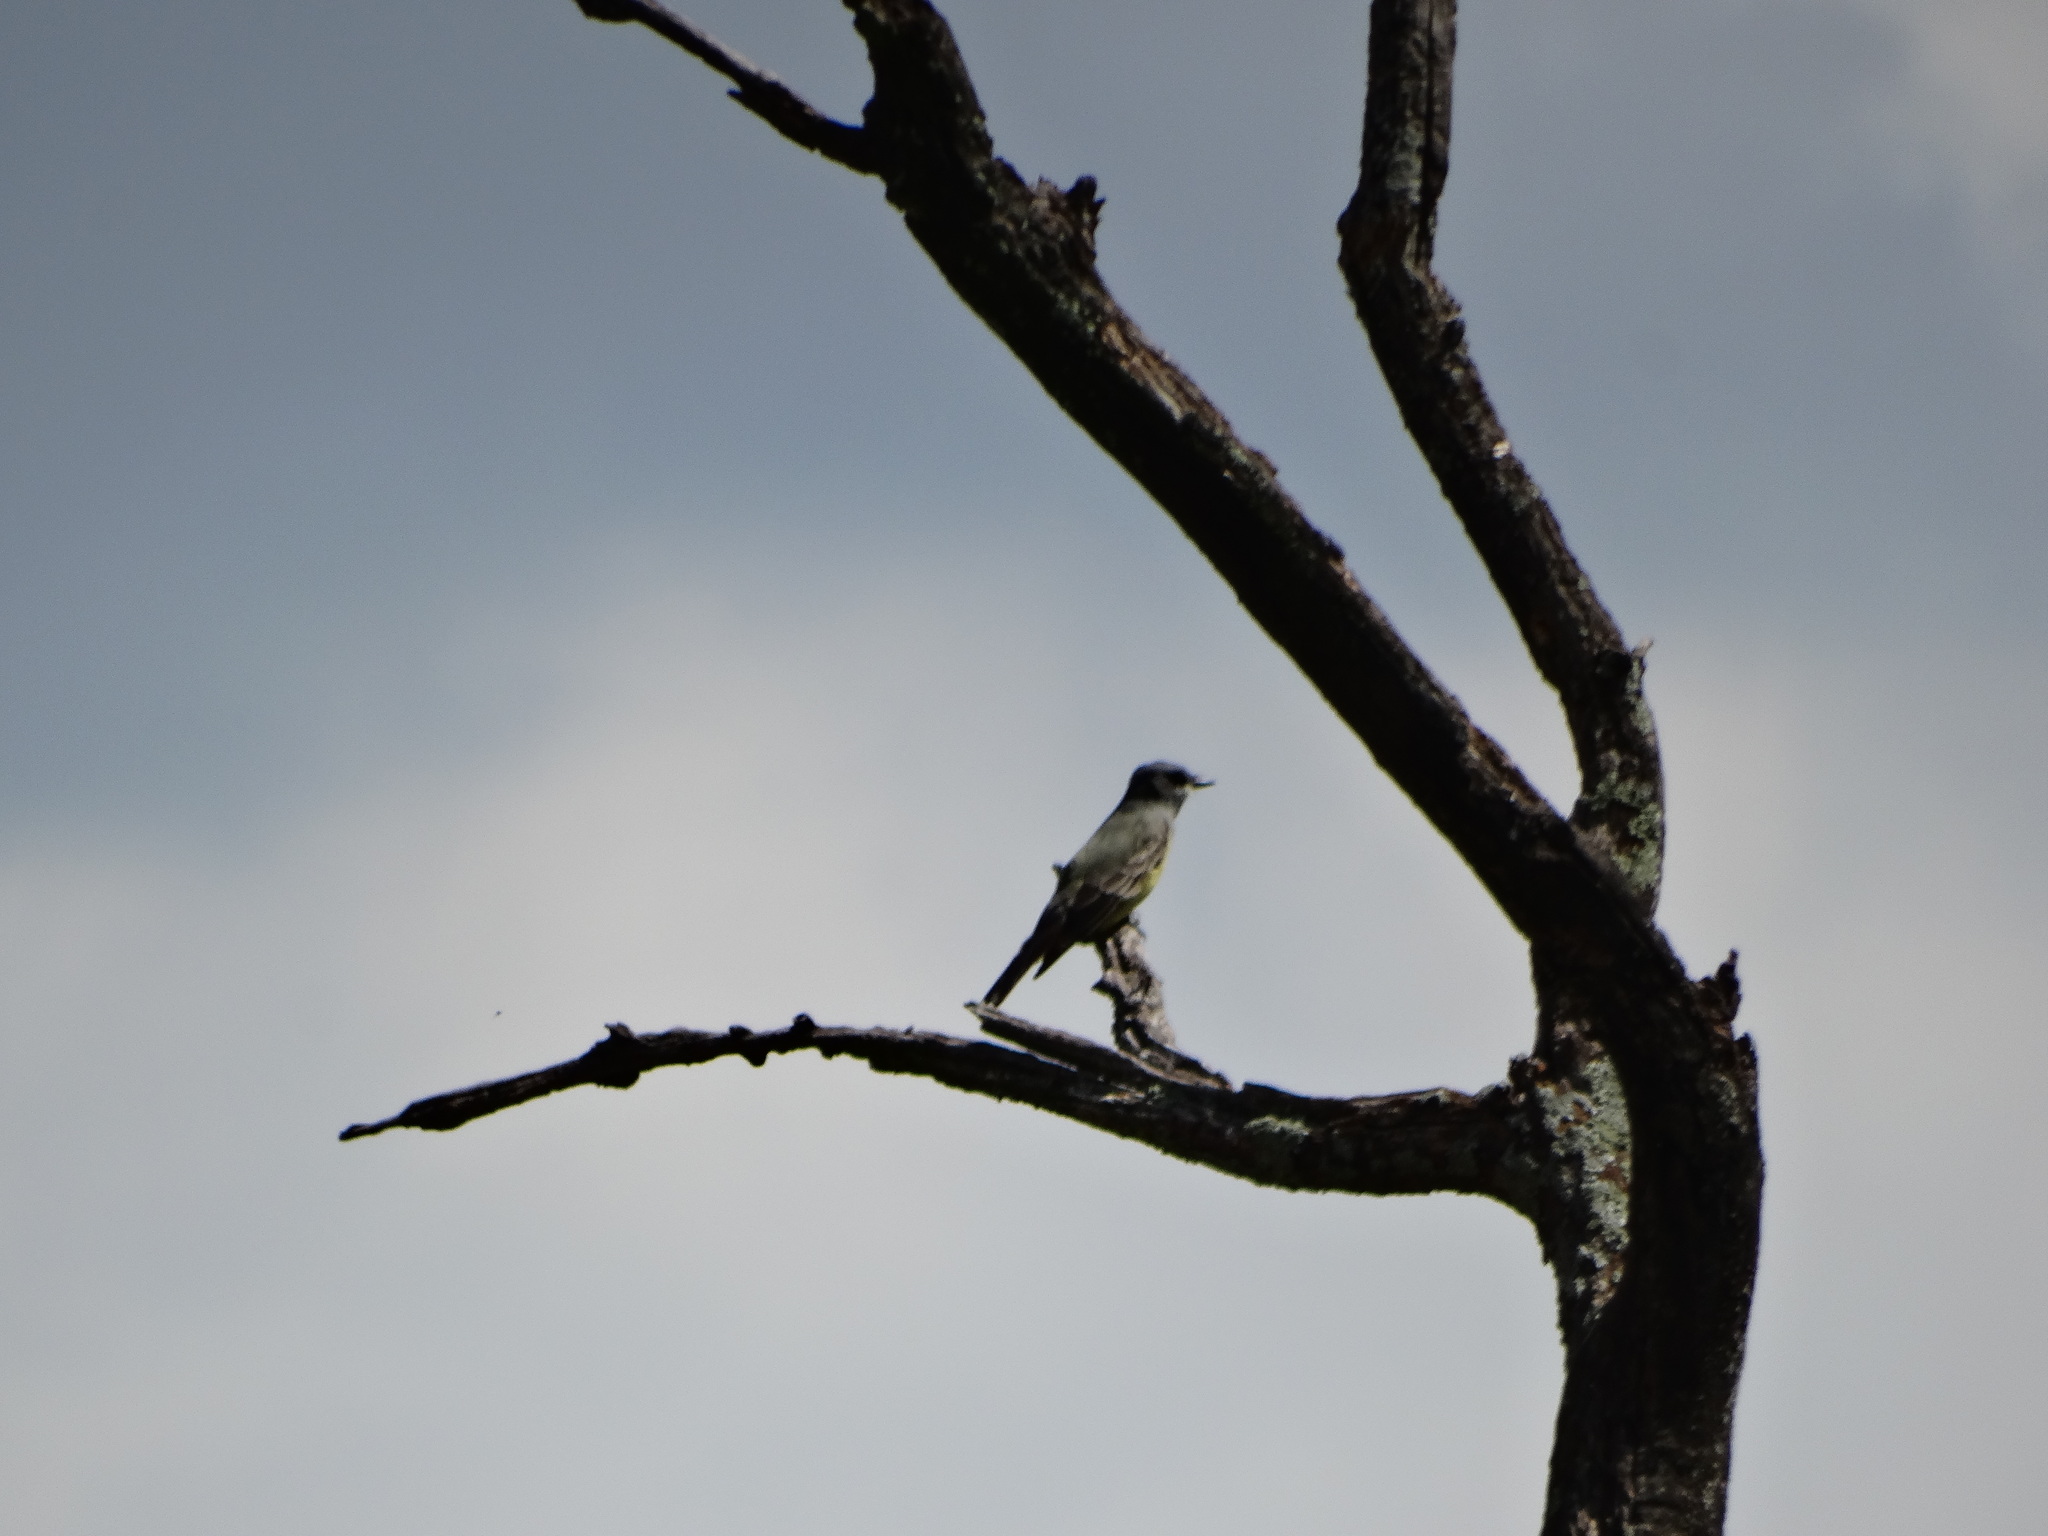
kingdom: Animalia
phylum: Chordata
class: Aves
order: Passeriformes
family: Tyrannidae
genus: Tyrannus
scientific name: Tyrannus vociferans
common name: Cassin's kingbird
